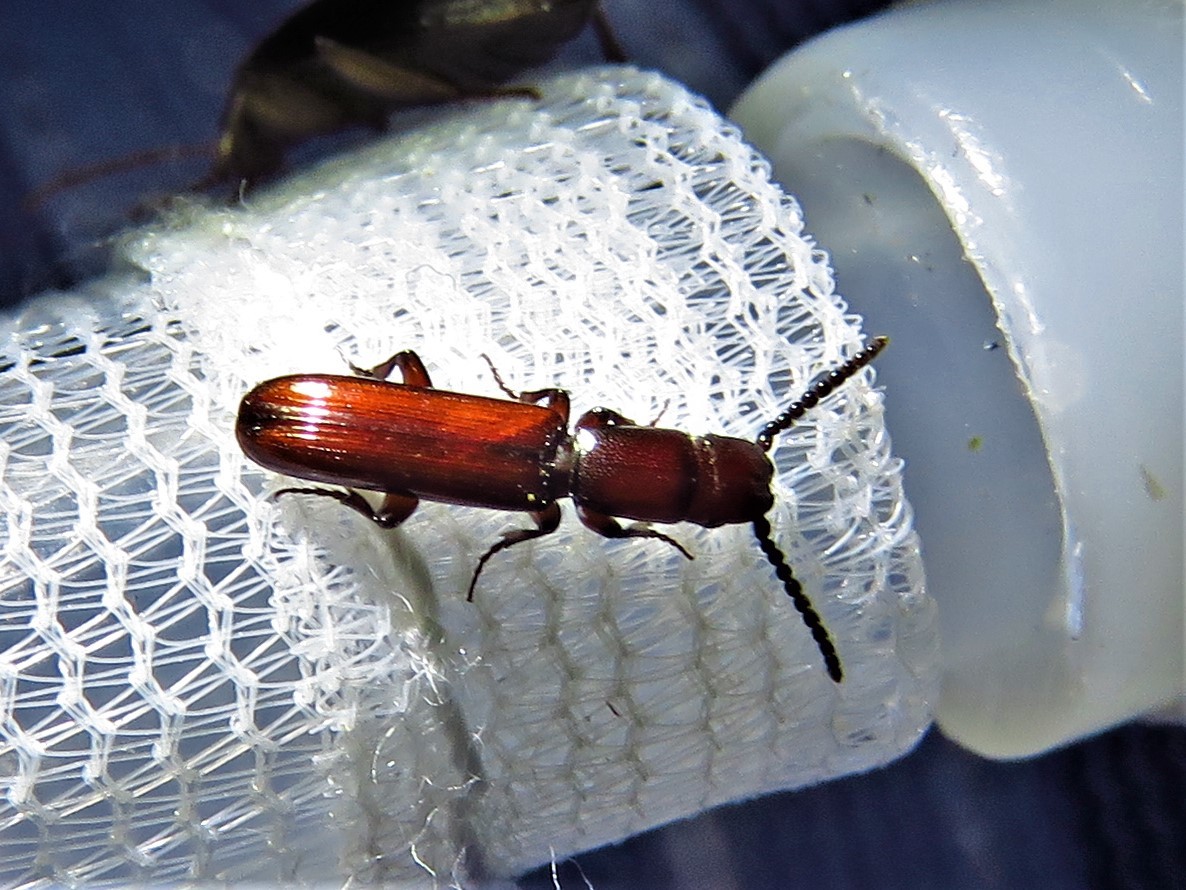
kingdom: Animalia
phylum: Arthropoda
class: Insecta
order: Coleoptera
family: Passandridae
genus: Taphroscelidia
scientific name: Taphroscelidia linearis
